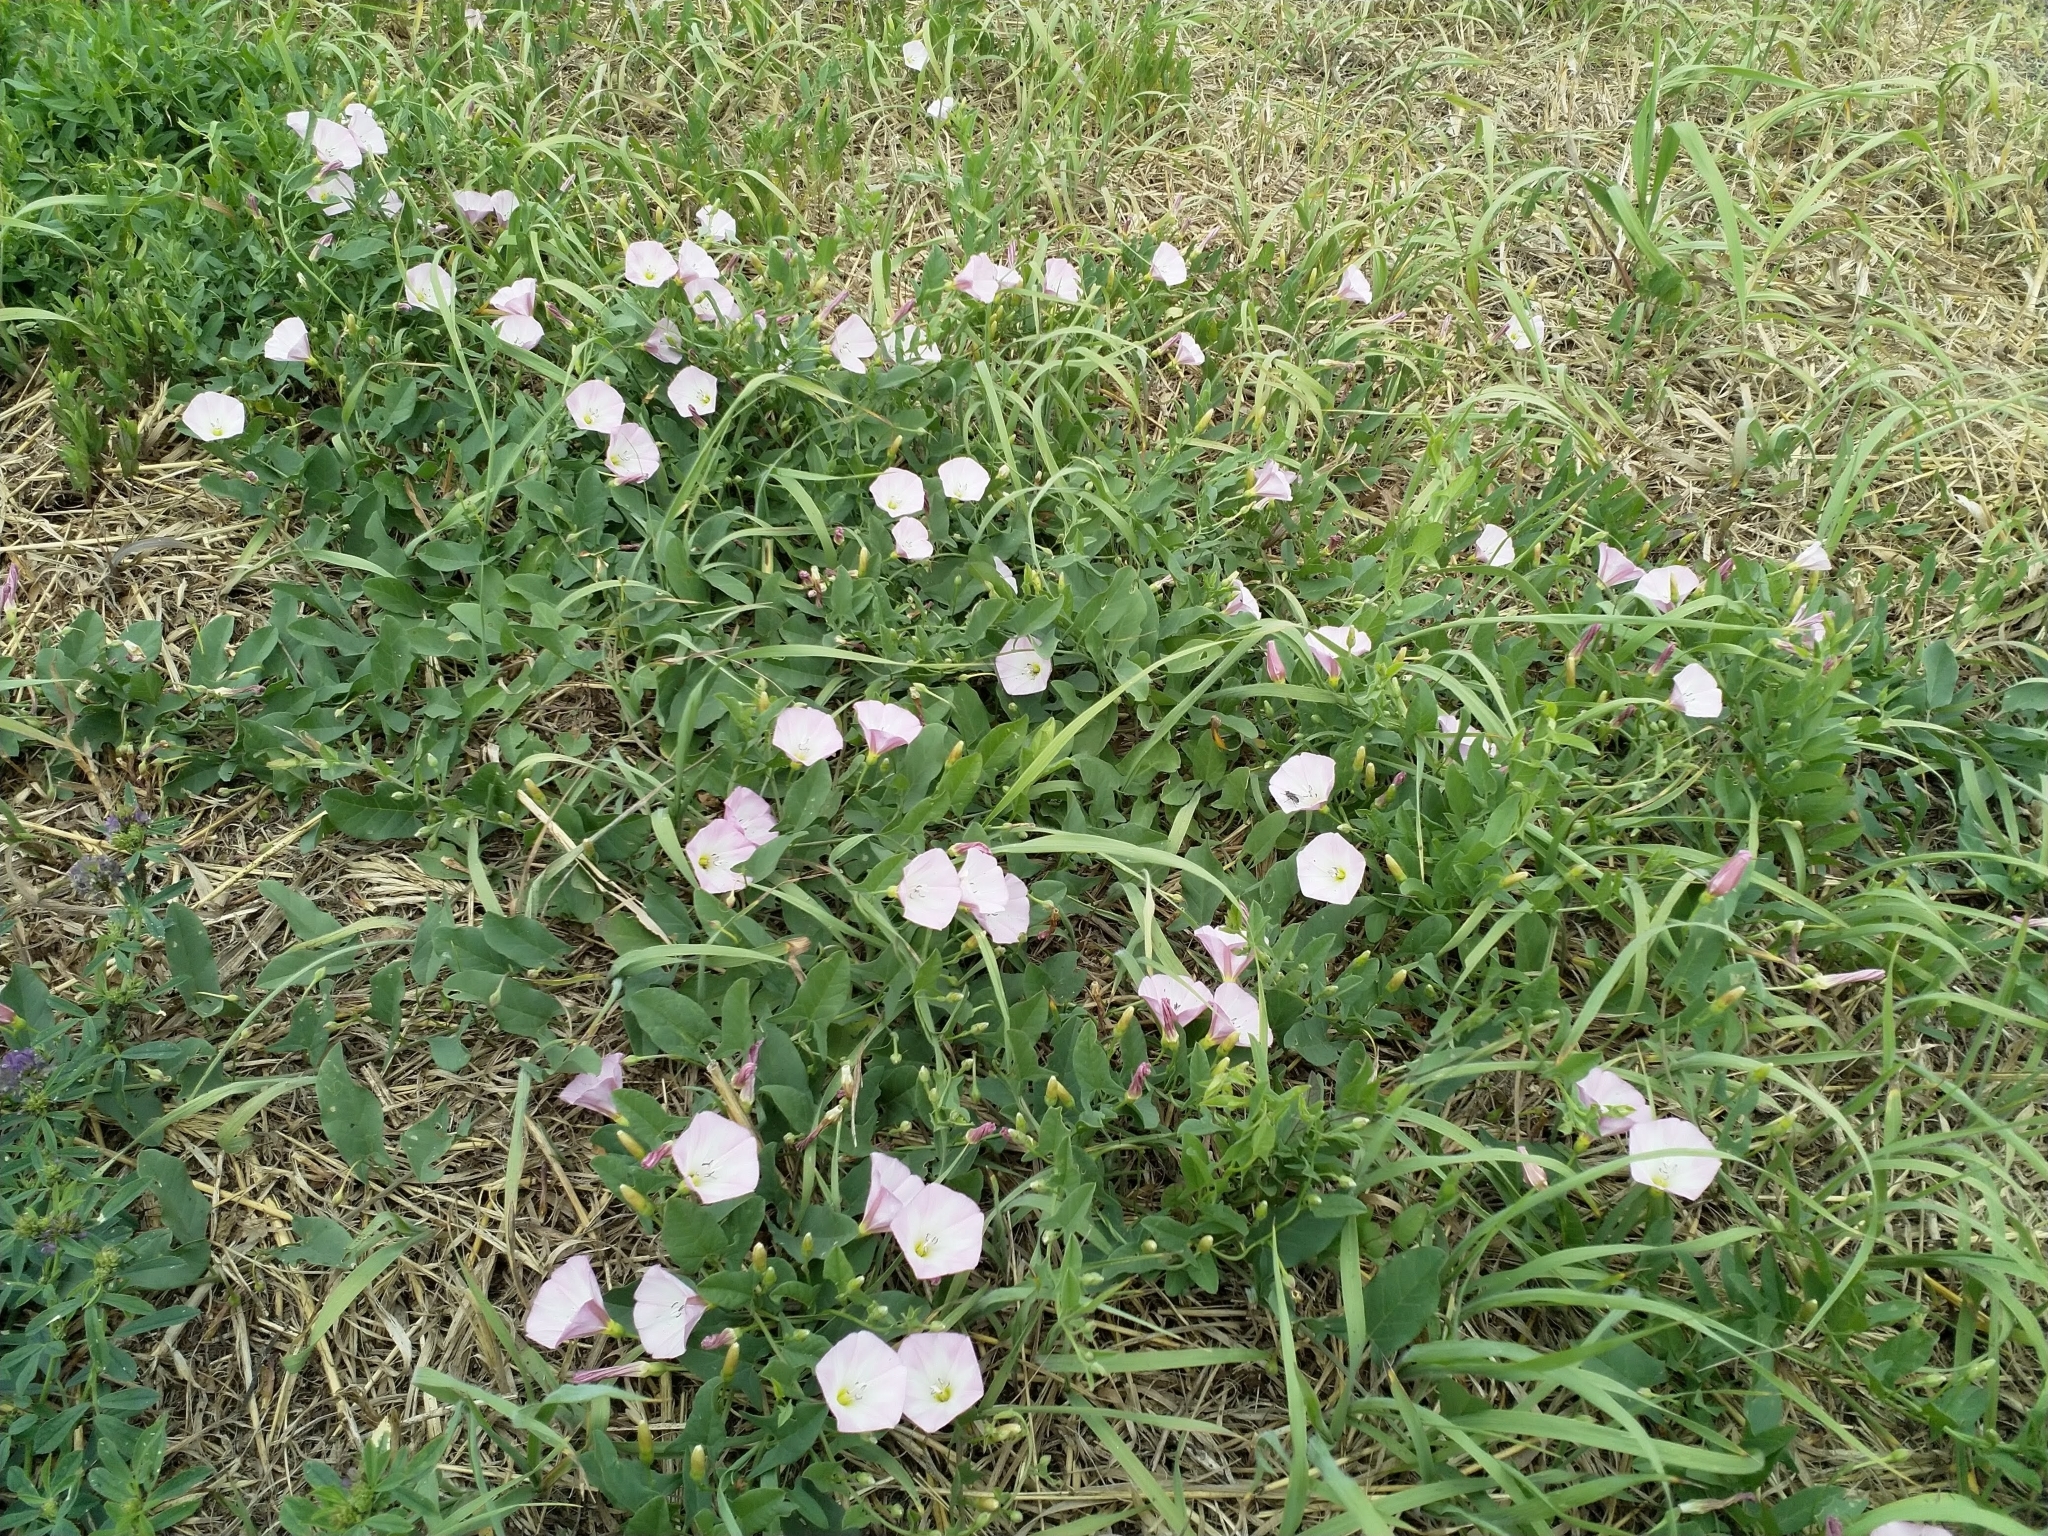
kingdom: Plantae
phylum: Tracheophyta
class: Magnoliopsida
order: Solanales
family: Convolvulaceae
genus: Convolvulus
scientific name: Convolvulus arvensis
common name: Field bindweed
